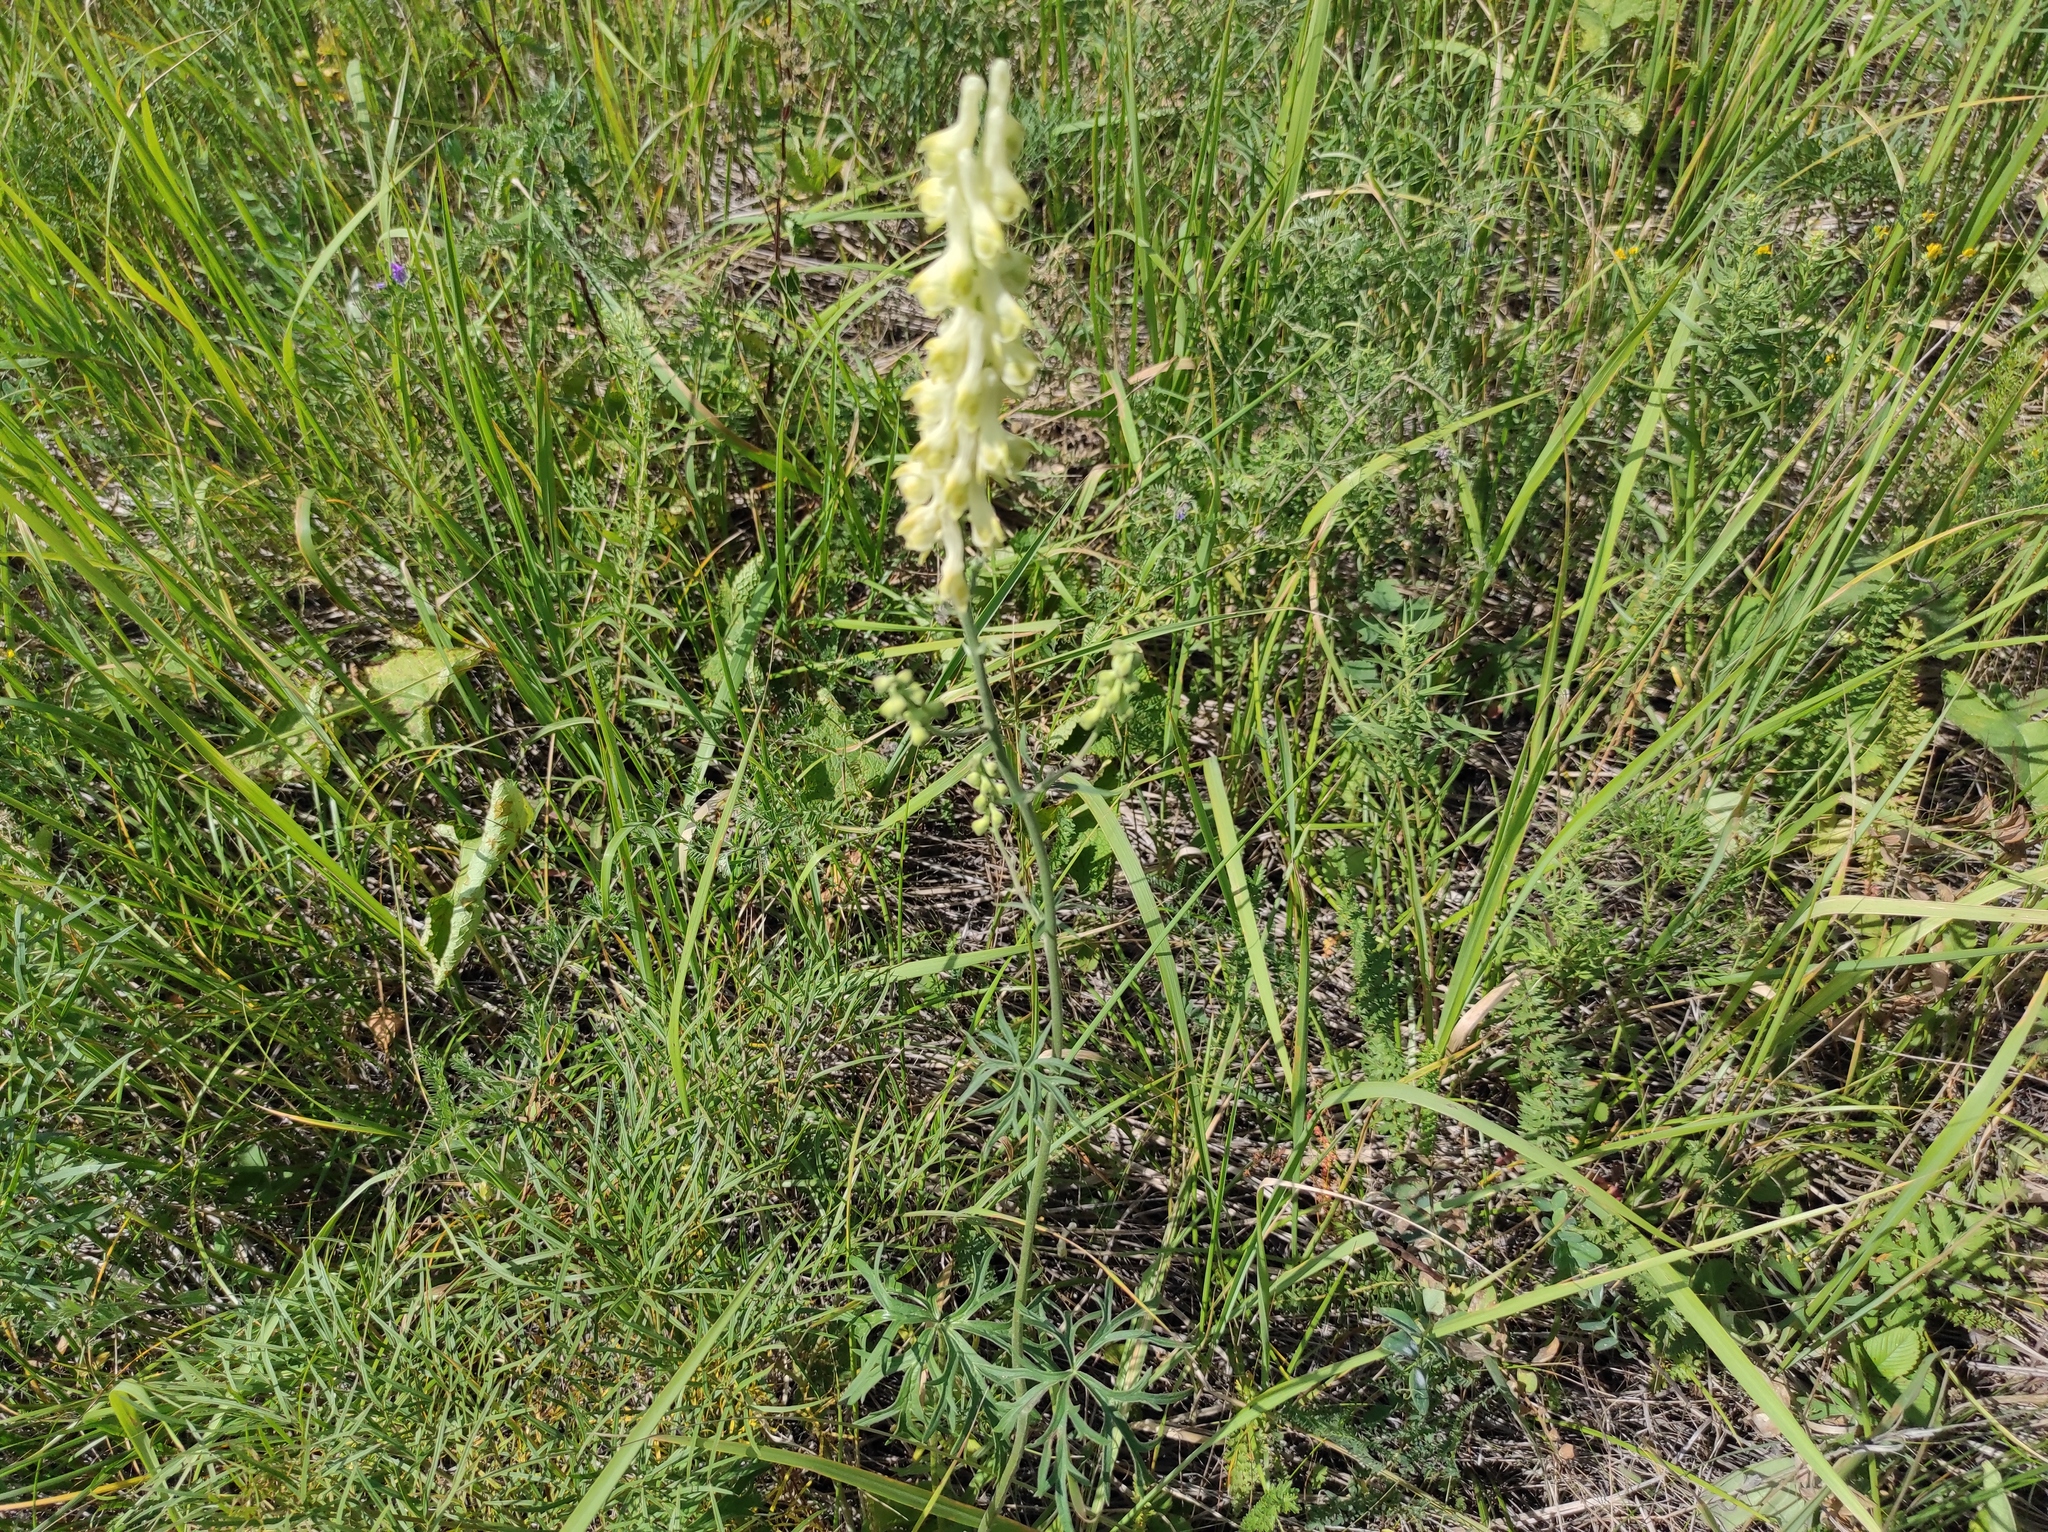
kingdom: Plantae
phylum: Tracheophyta
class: Magnoliopsida
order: Ranunculales
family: Ranunculaceae
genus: Aconitum
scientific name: Aconitum barbatum
